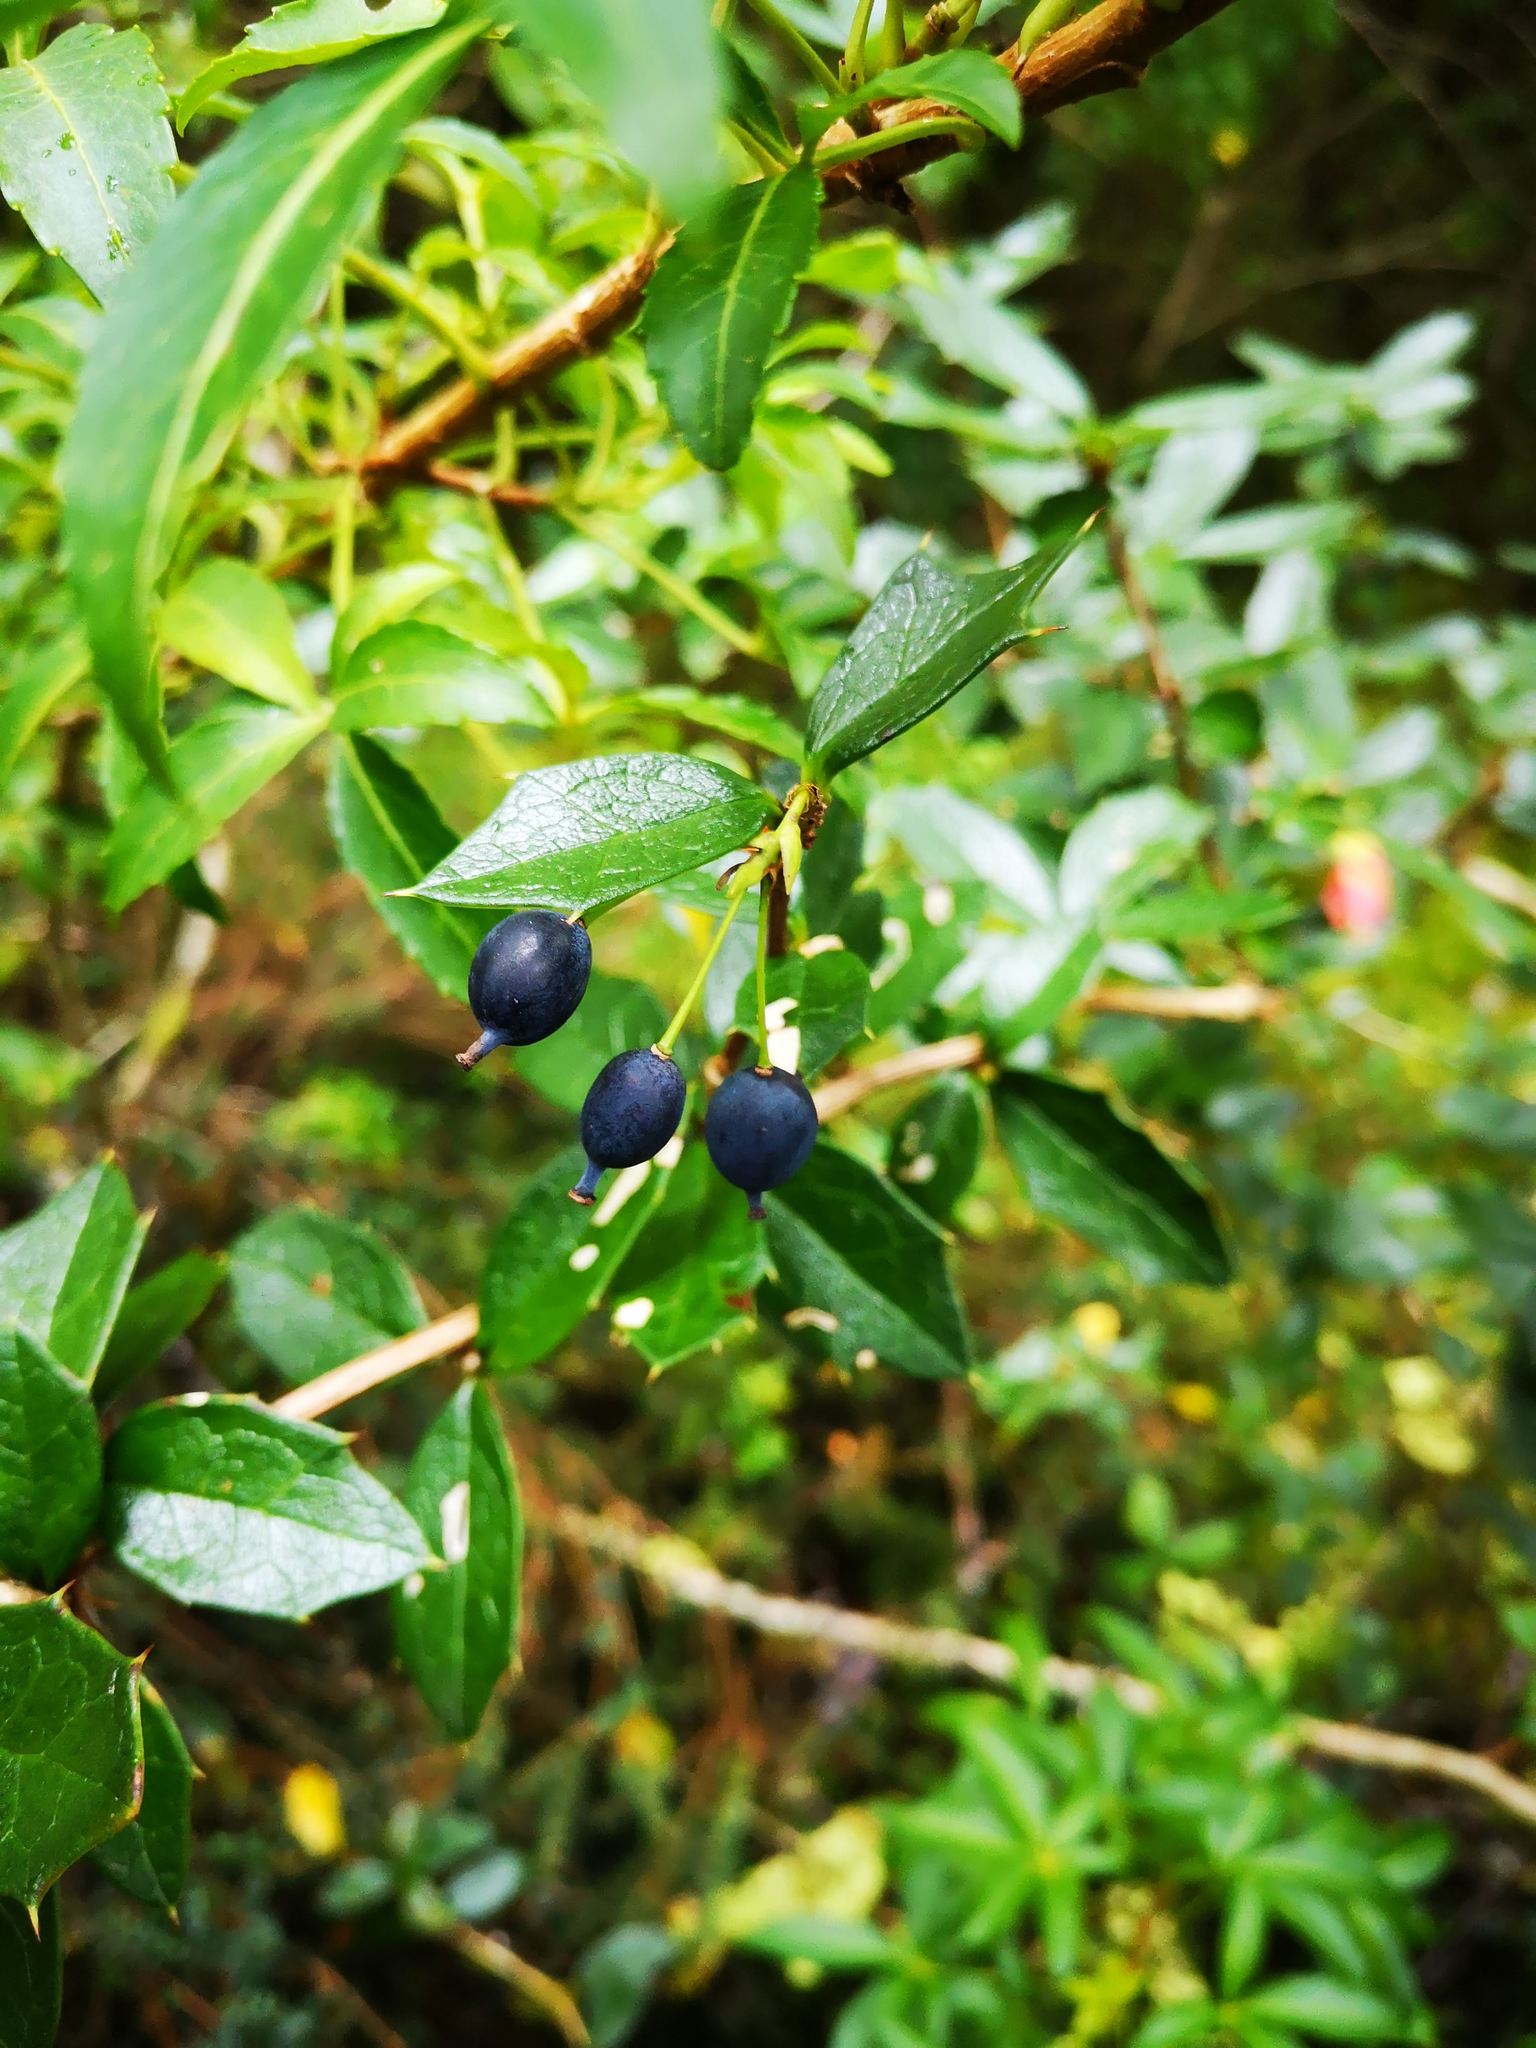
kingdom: Plantae
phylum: Tracheophyta
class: Magnoliopsida
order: Ranunculales
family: Berberidaceae
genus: Berberis
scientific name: Berberis ilicifolia
